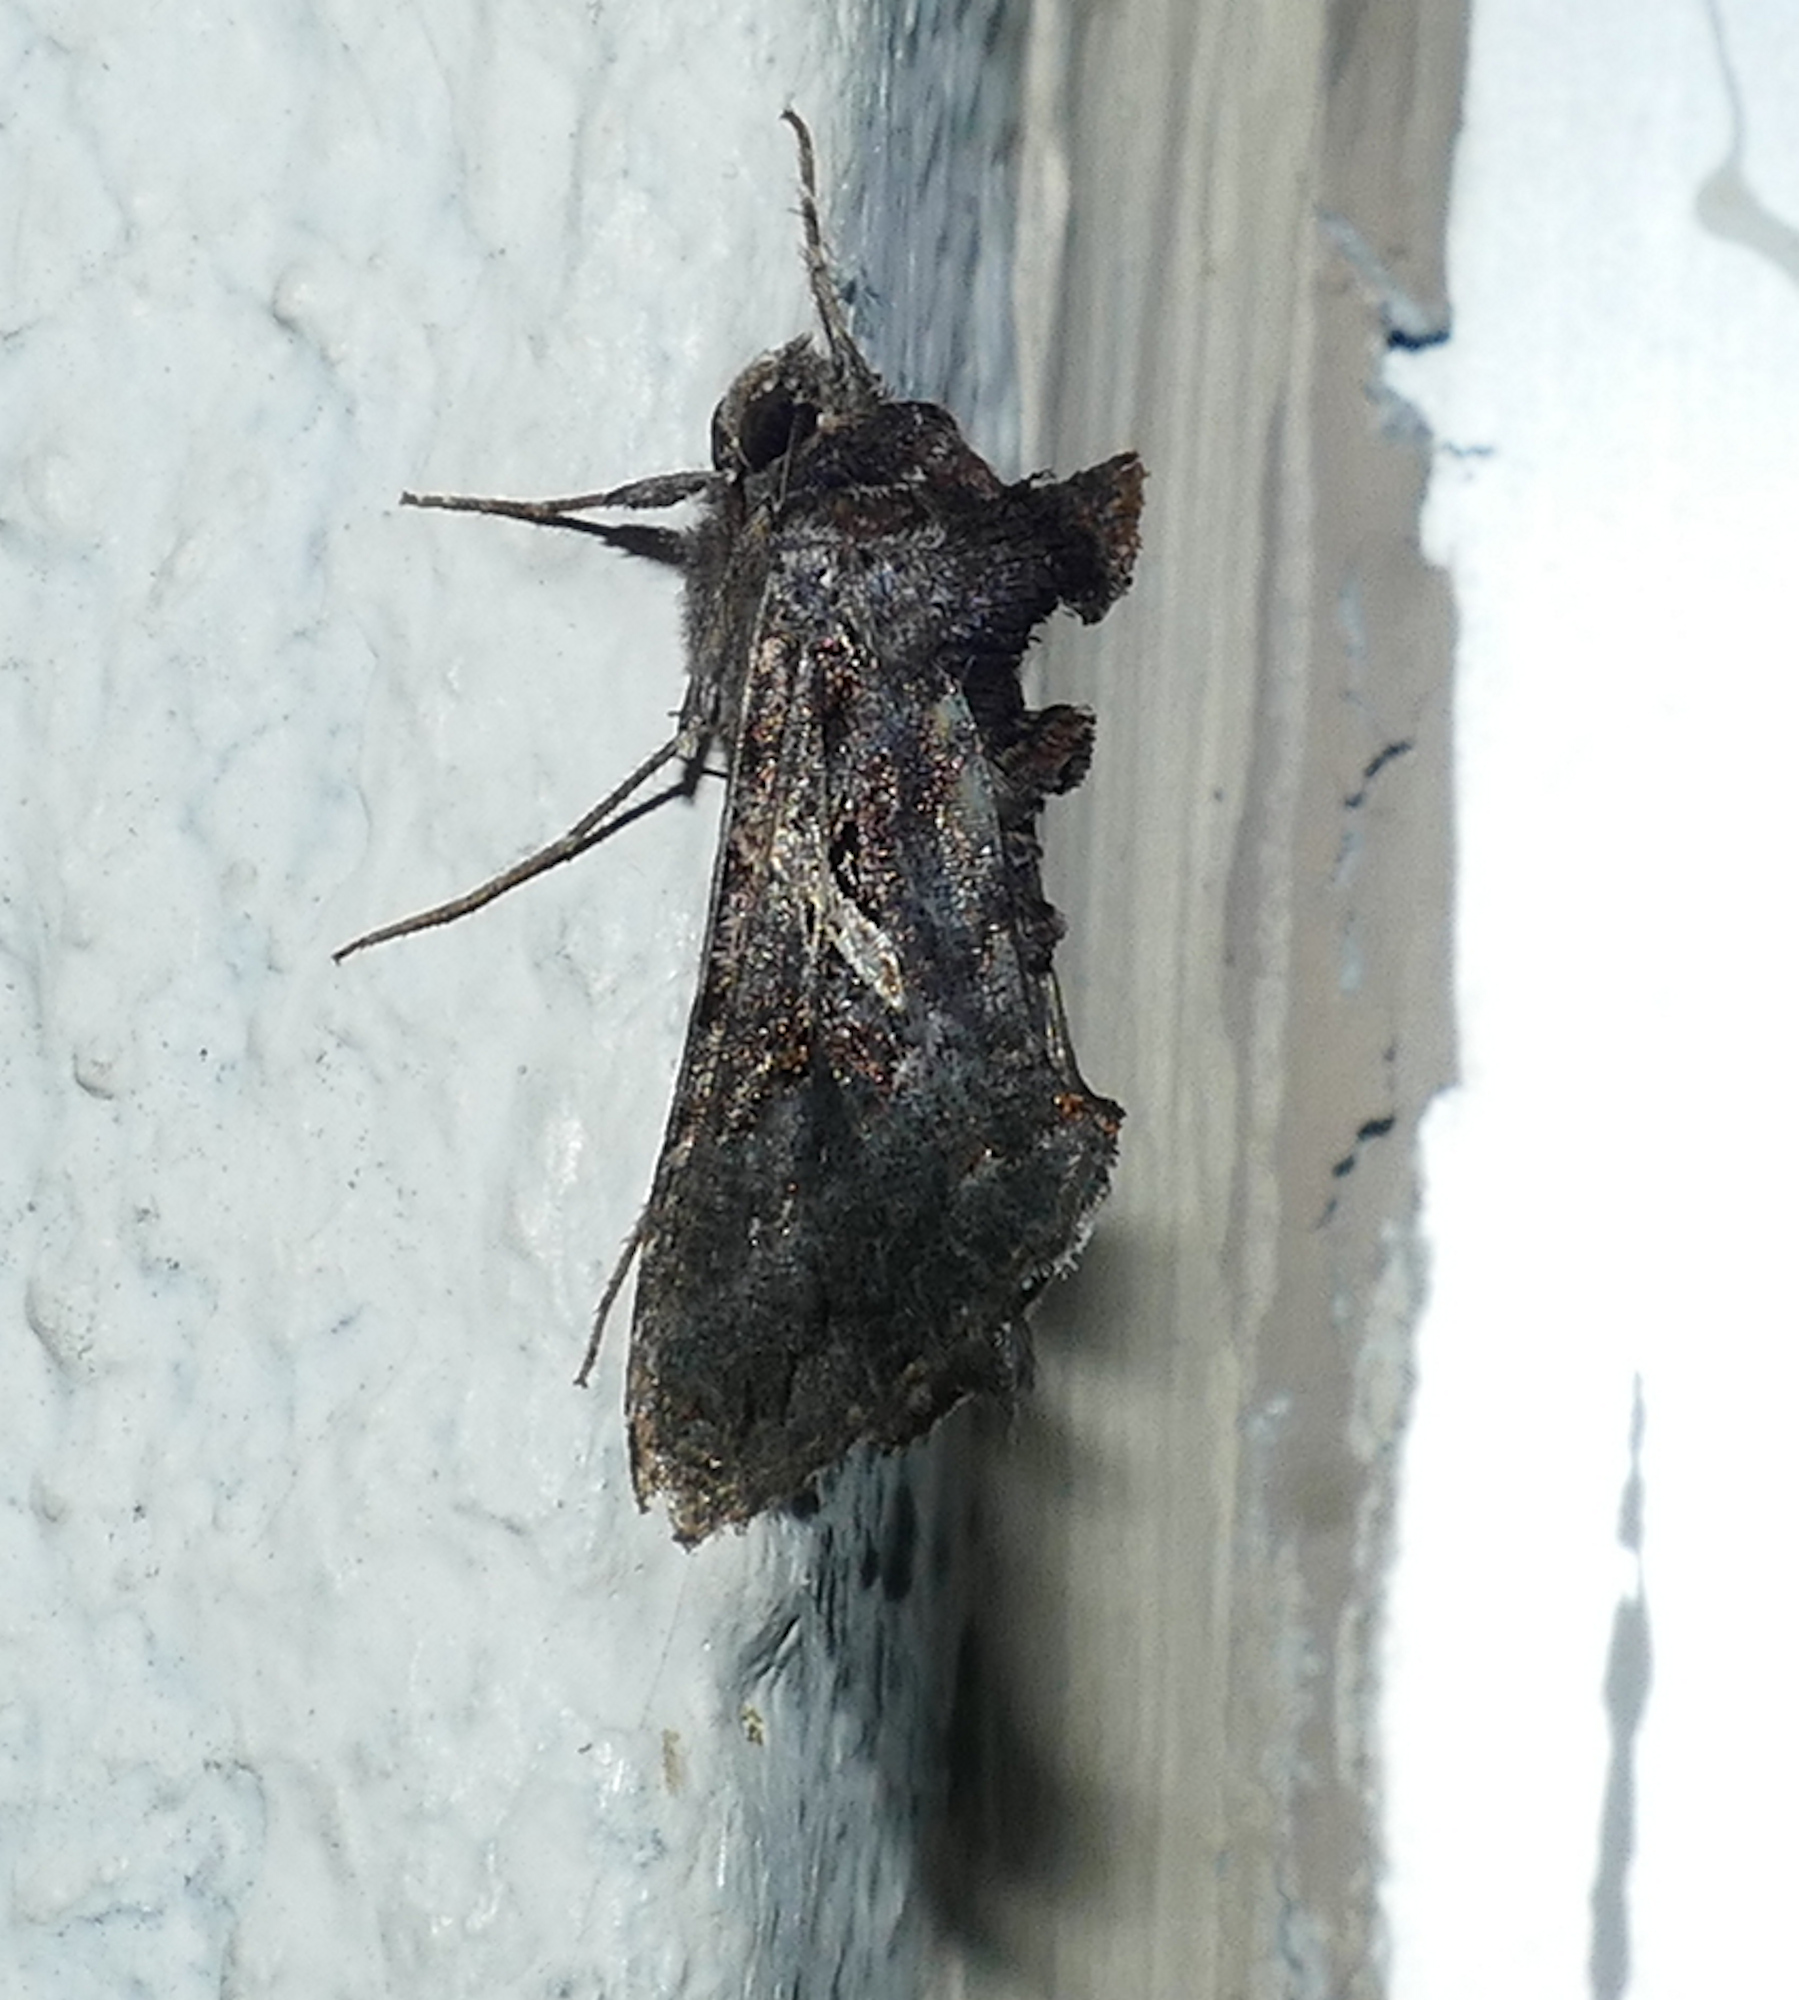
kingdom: Animalia
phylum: Arthropoda
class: Insecta
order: Lepidoptera
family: Noctuidae
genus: Ctenoplusia
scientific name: Ctenoplusia oxygramma
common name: Sharp-stigma looper moth
